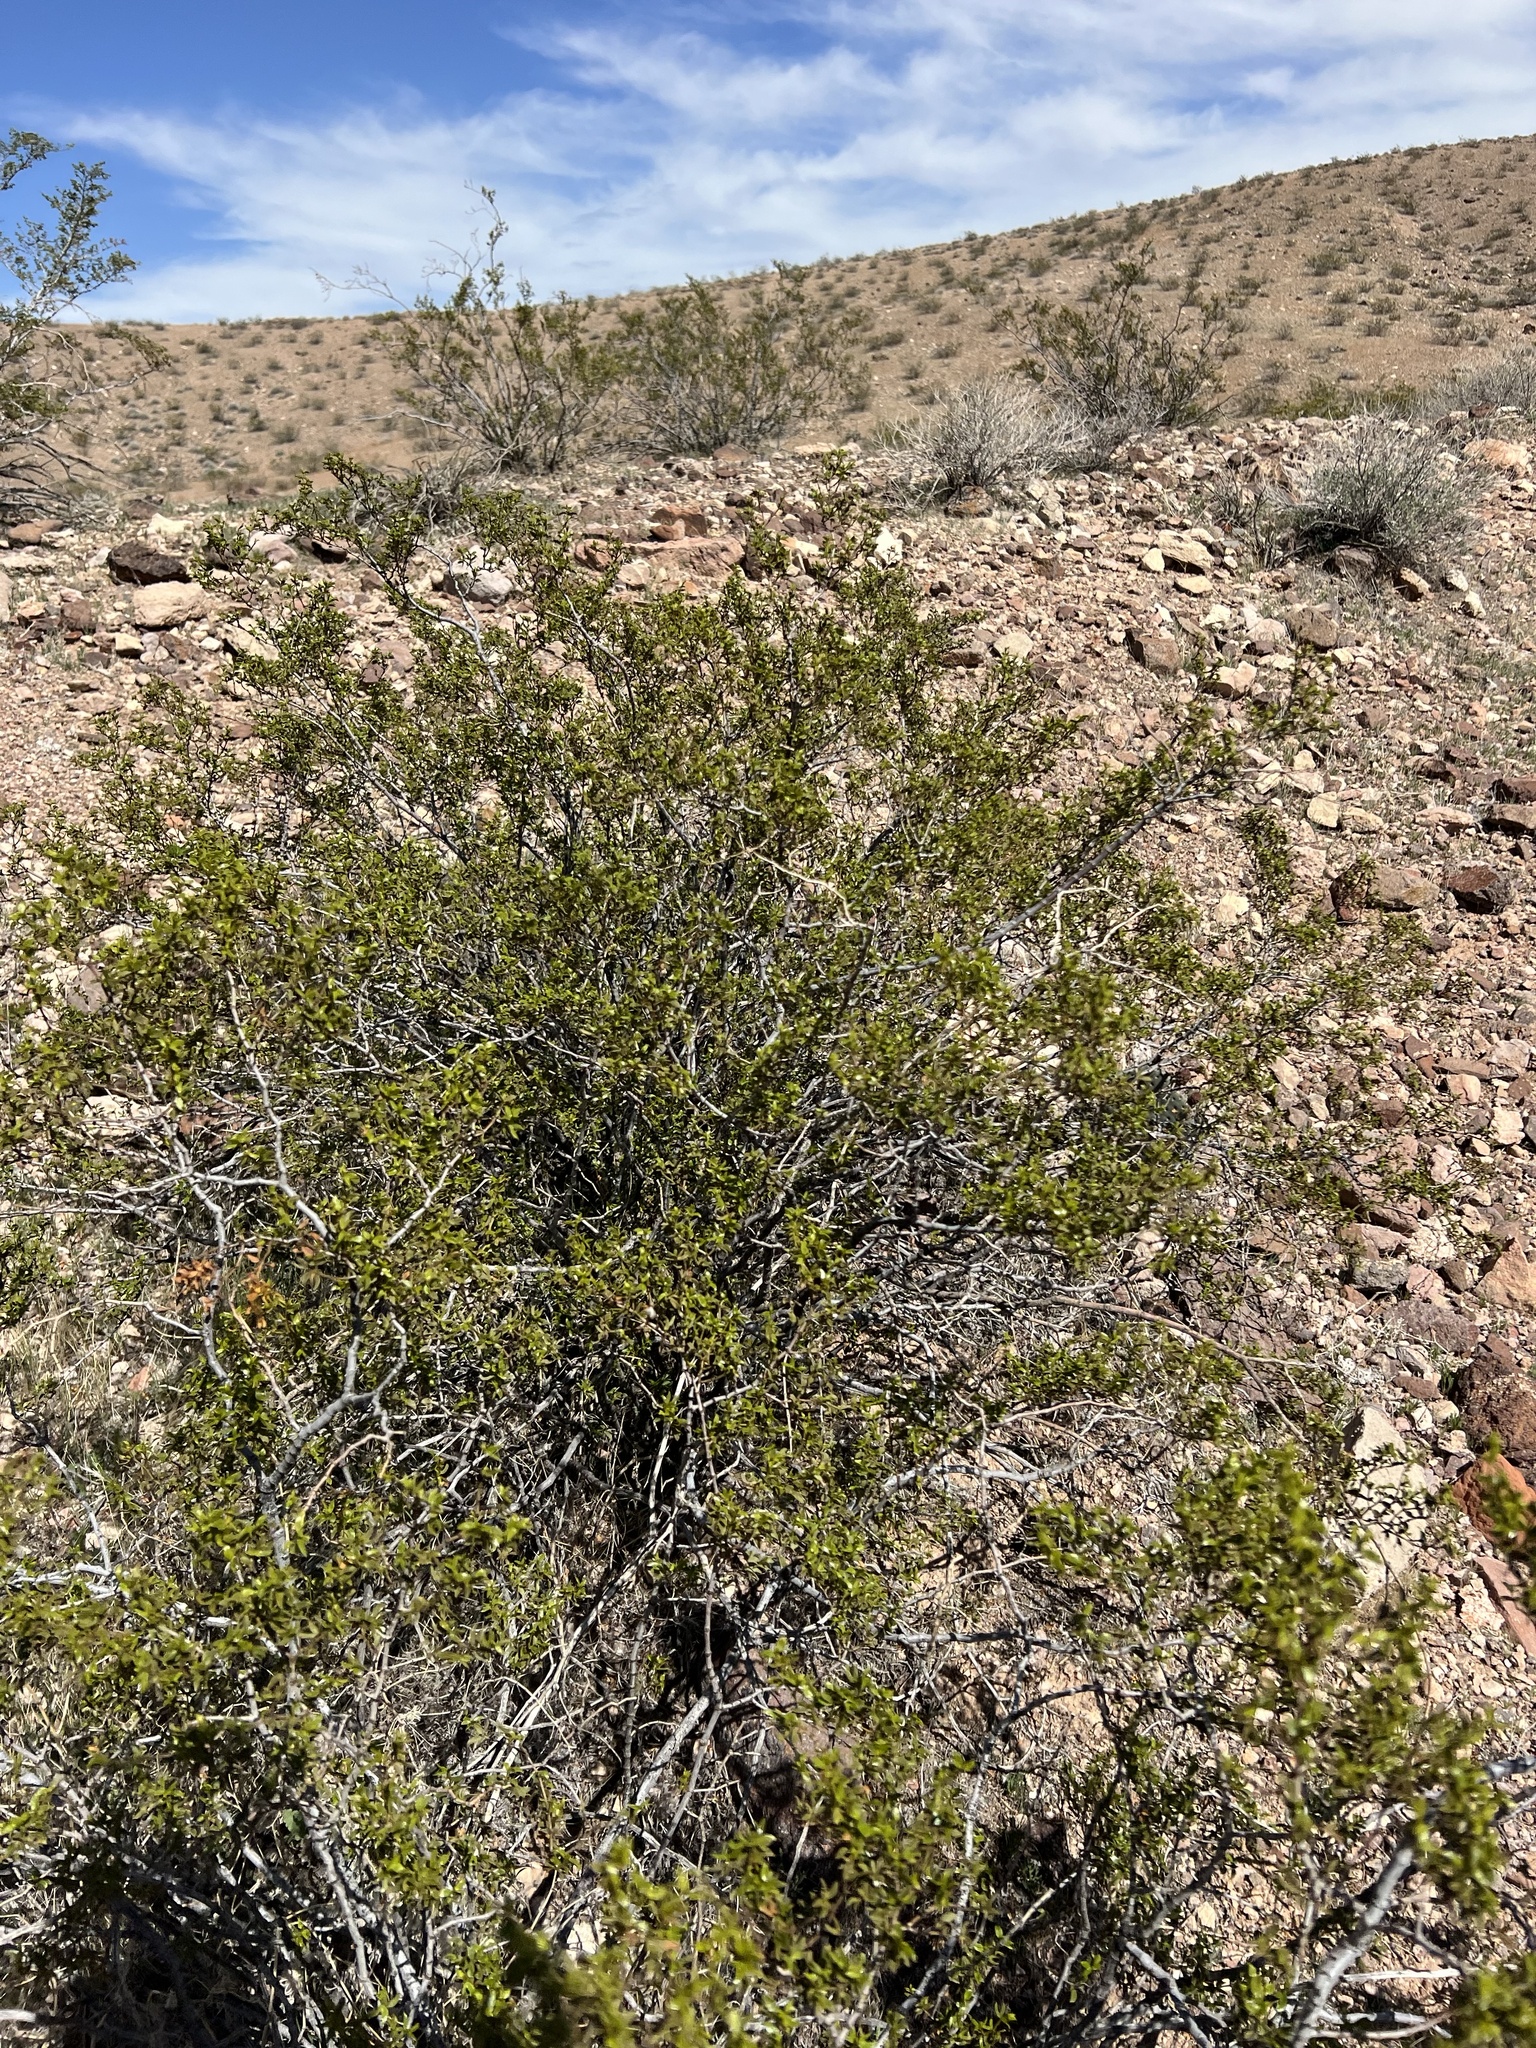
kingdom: Plantae
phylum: Tracheophyta
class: Magnoliopsida
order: Zygophyllales
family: Zygophyllaceae
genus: Larrea
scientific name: Larrea tridentata
